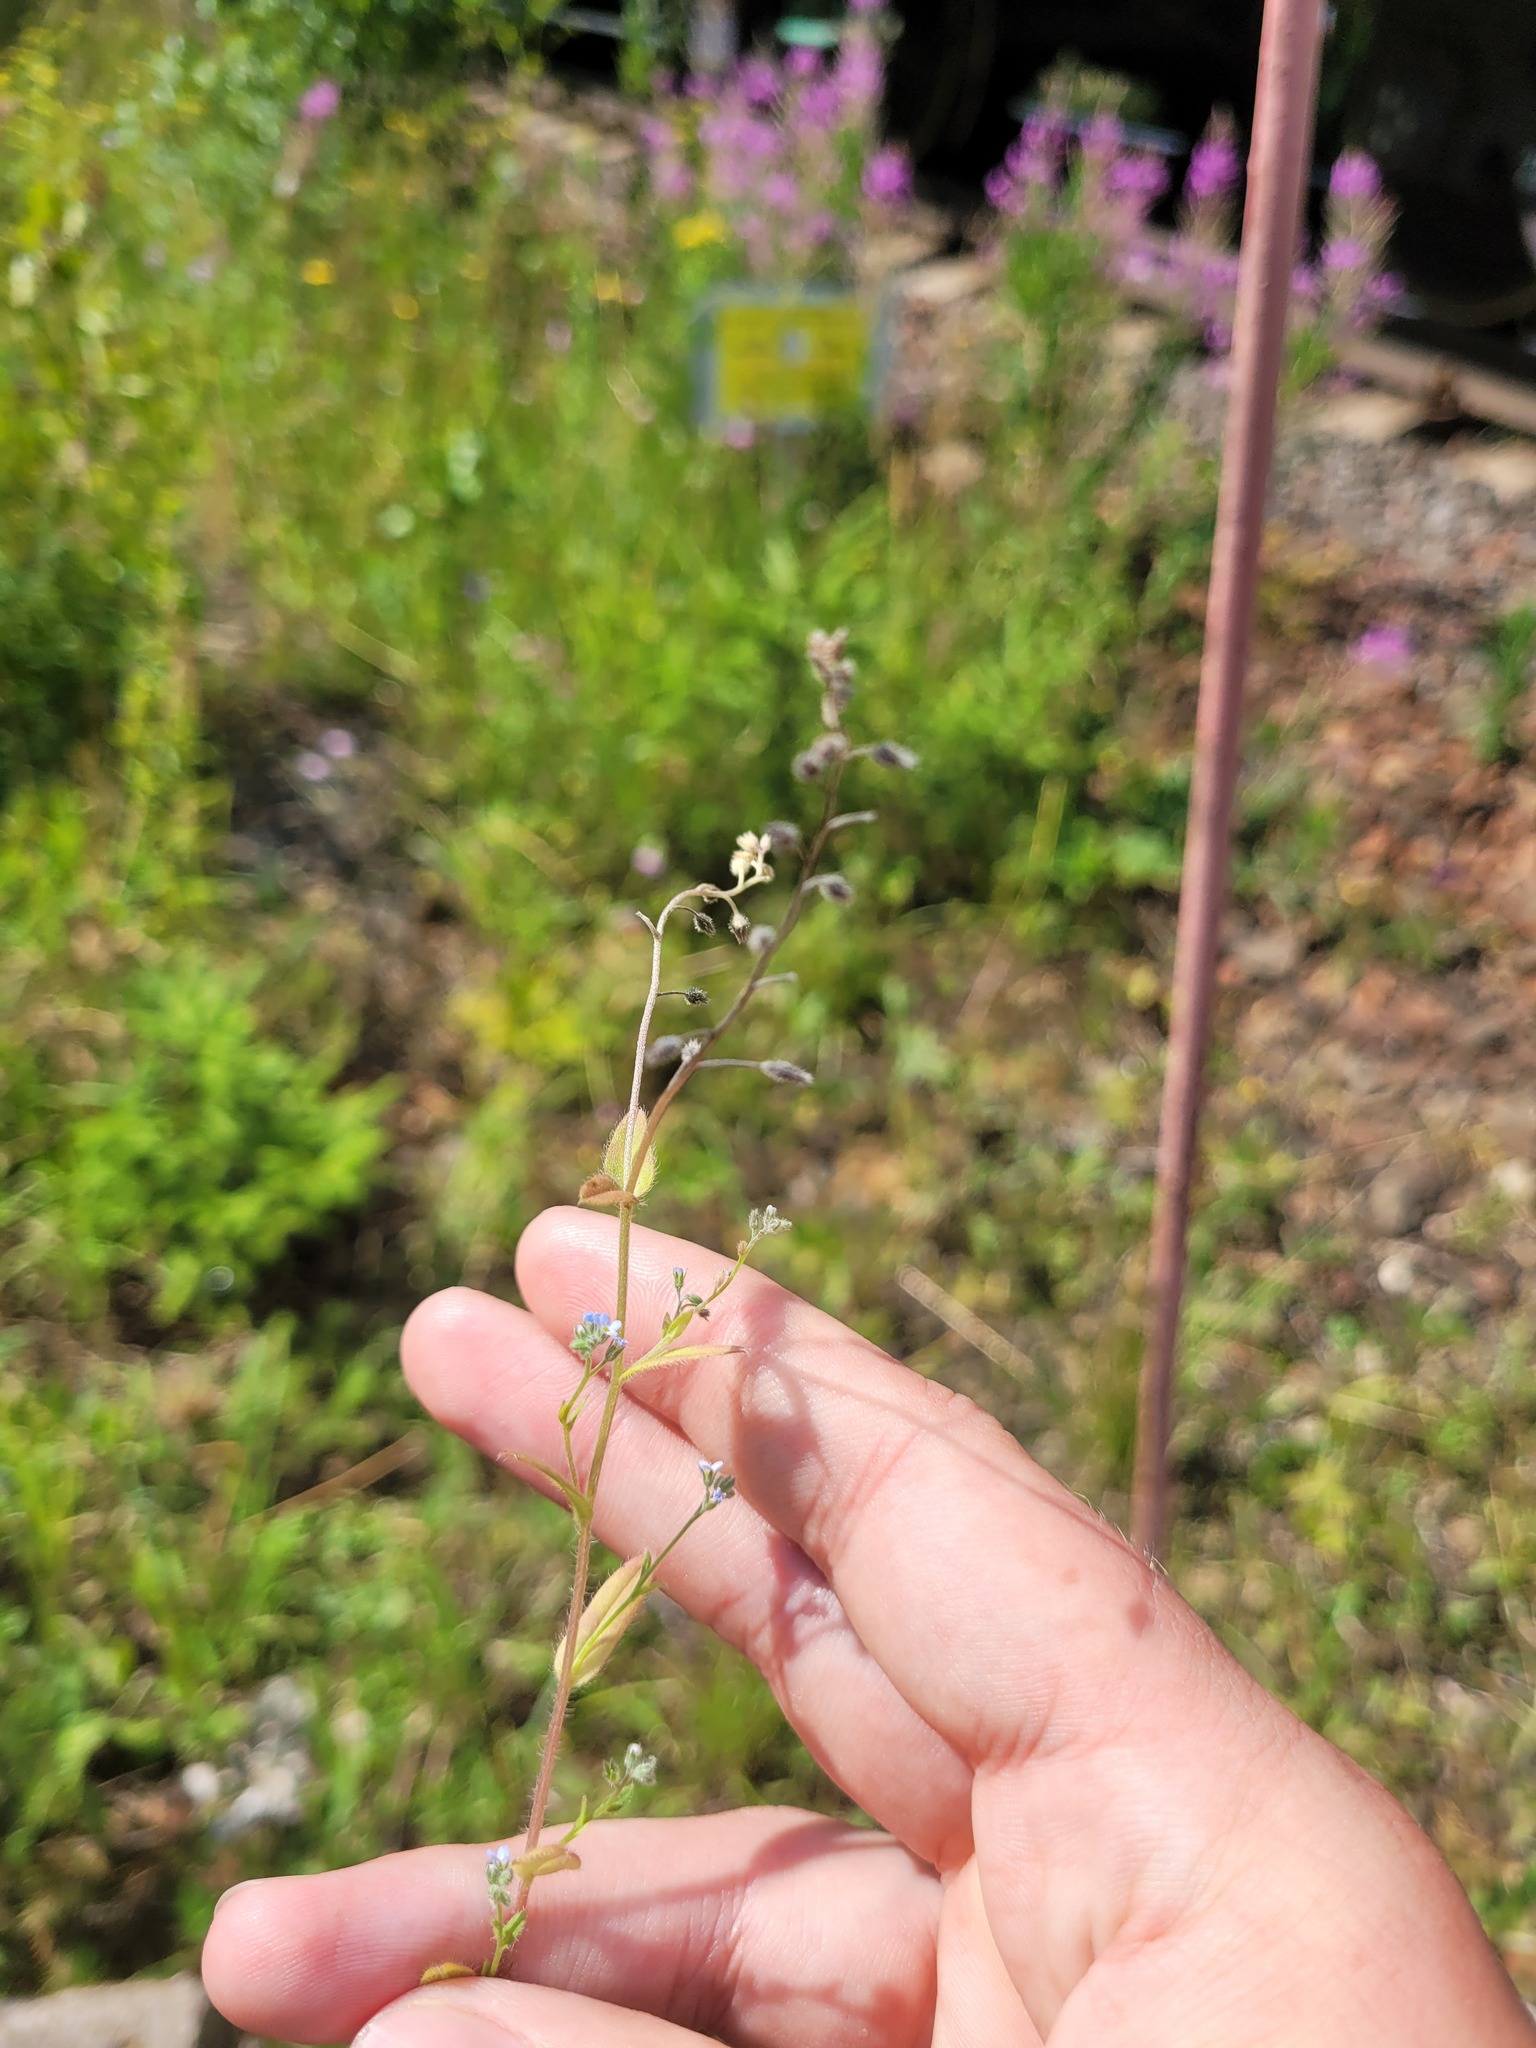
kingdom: Plantae
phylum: Tracheophyta
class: Magnoliopsida
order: Boraginales
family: Boraginaceae
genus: Myosotis
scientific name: Myosotis arvensis
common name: Field forget-me-not
